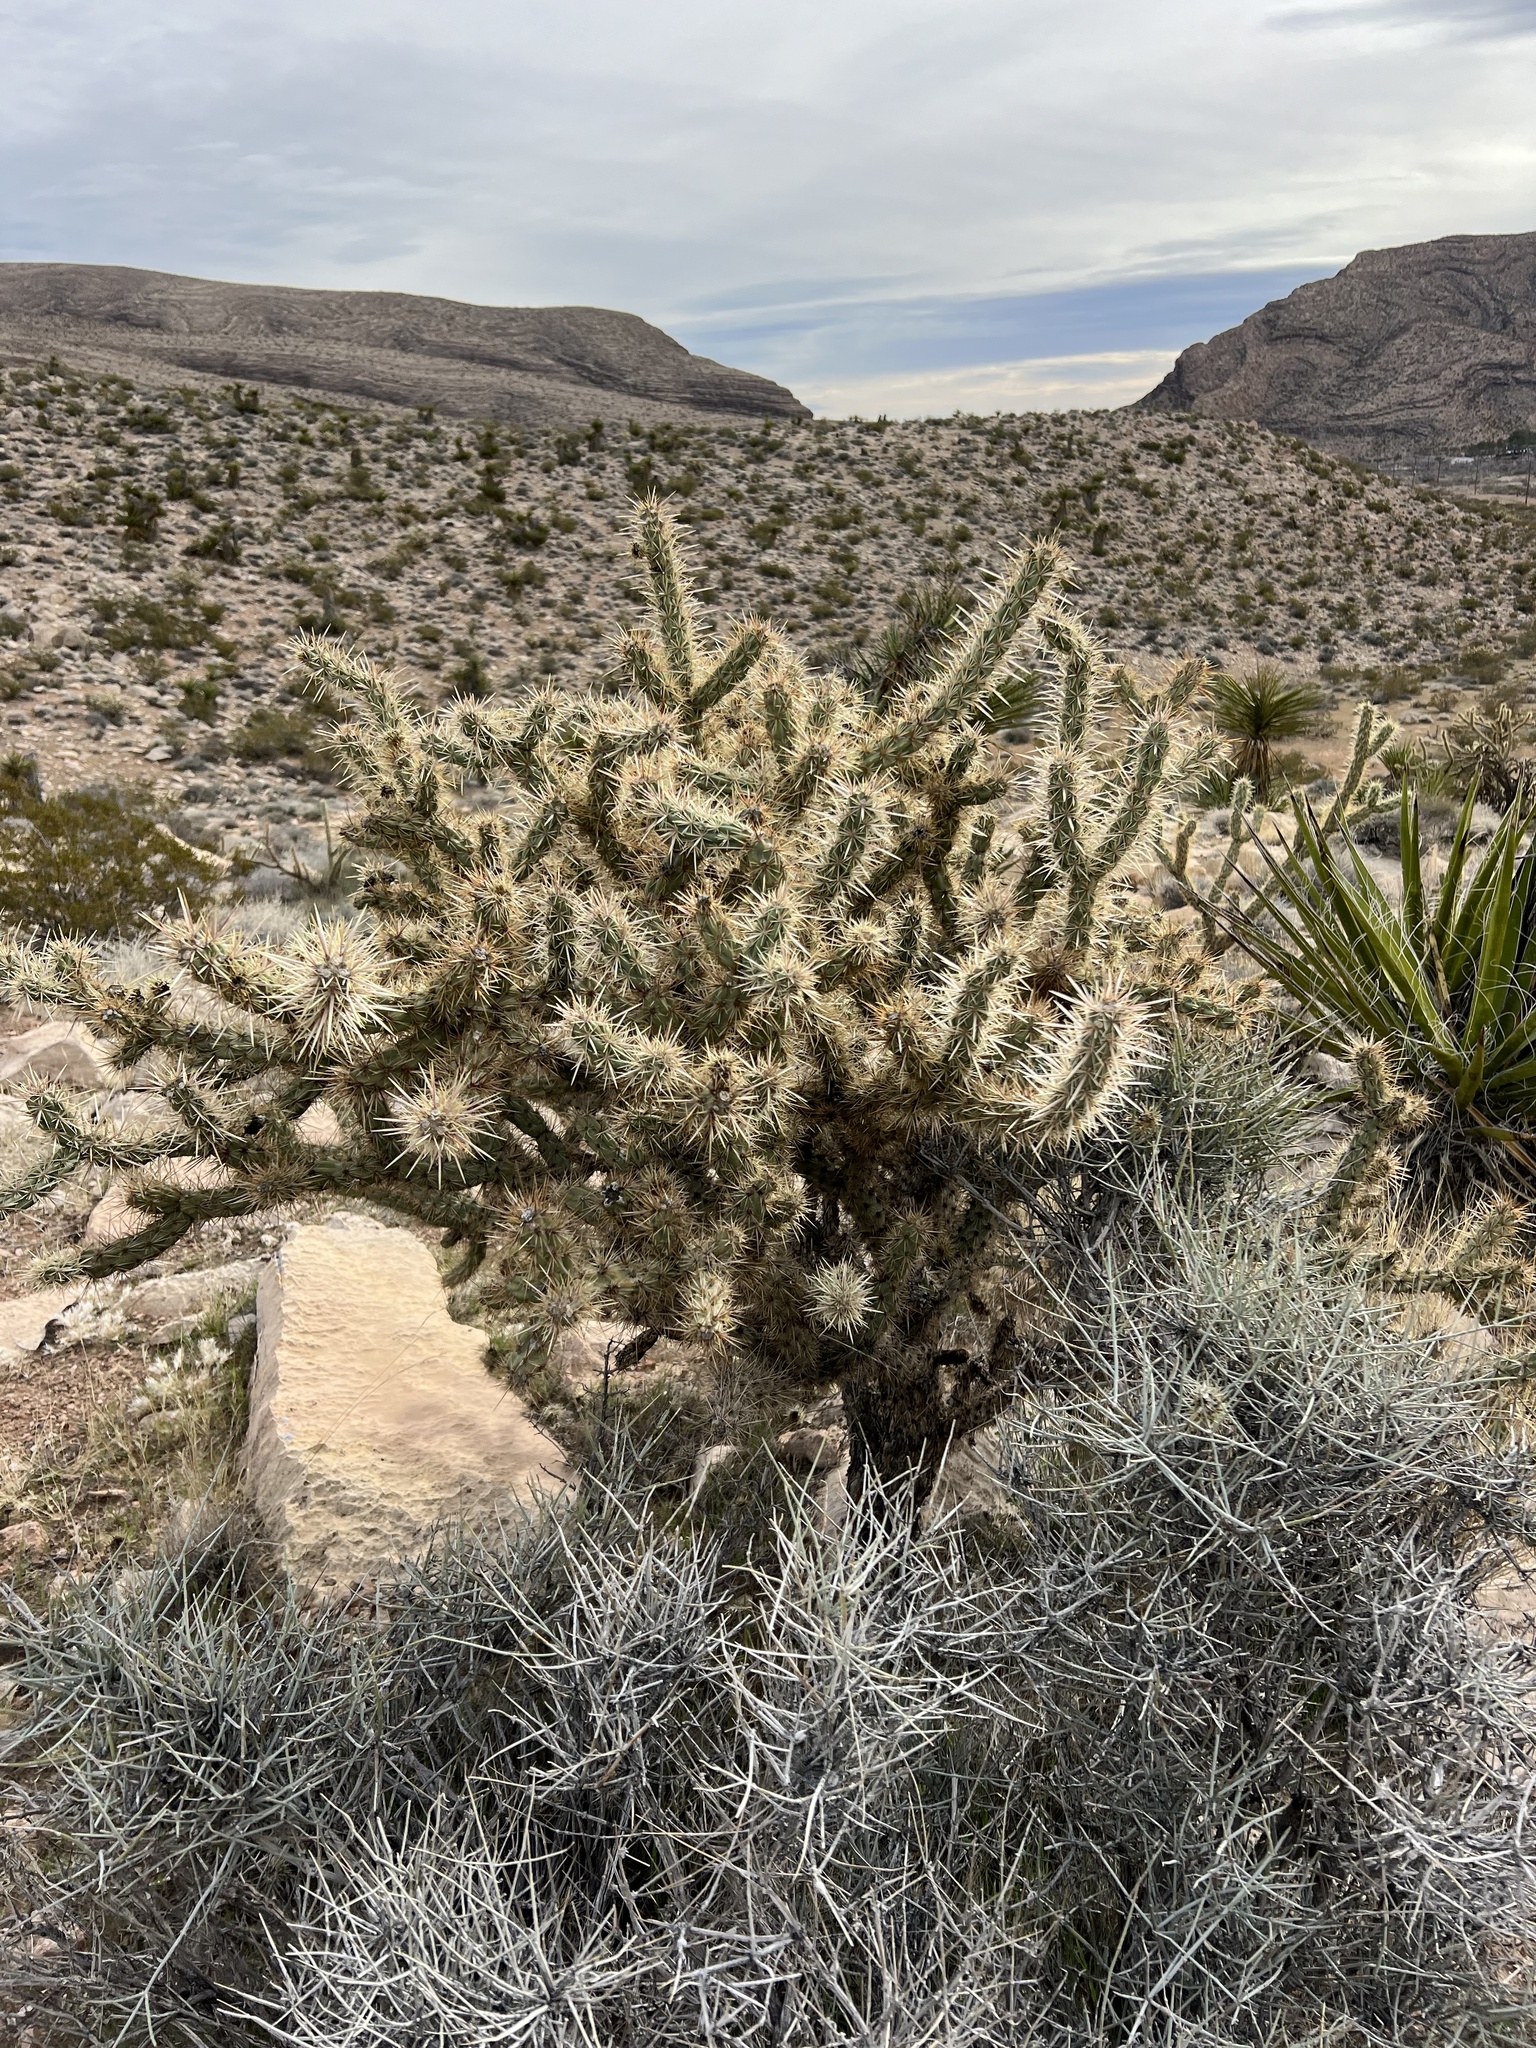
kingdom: Plantae
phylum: Tracheophyta
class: Magnoliopsida
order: Caryophyllales
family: Cactaceae
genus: Cylindropuntia
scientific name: Cylindropuntia acanthocarpa
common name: Buckhorn cholla
